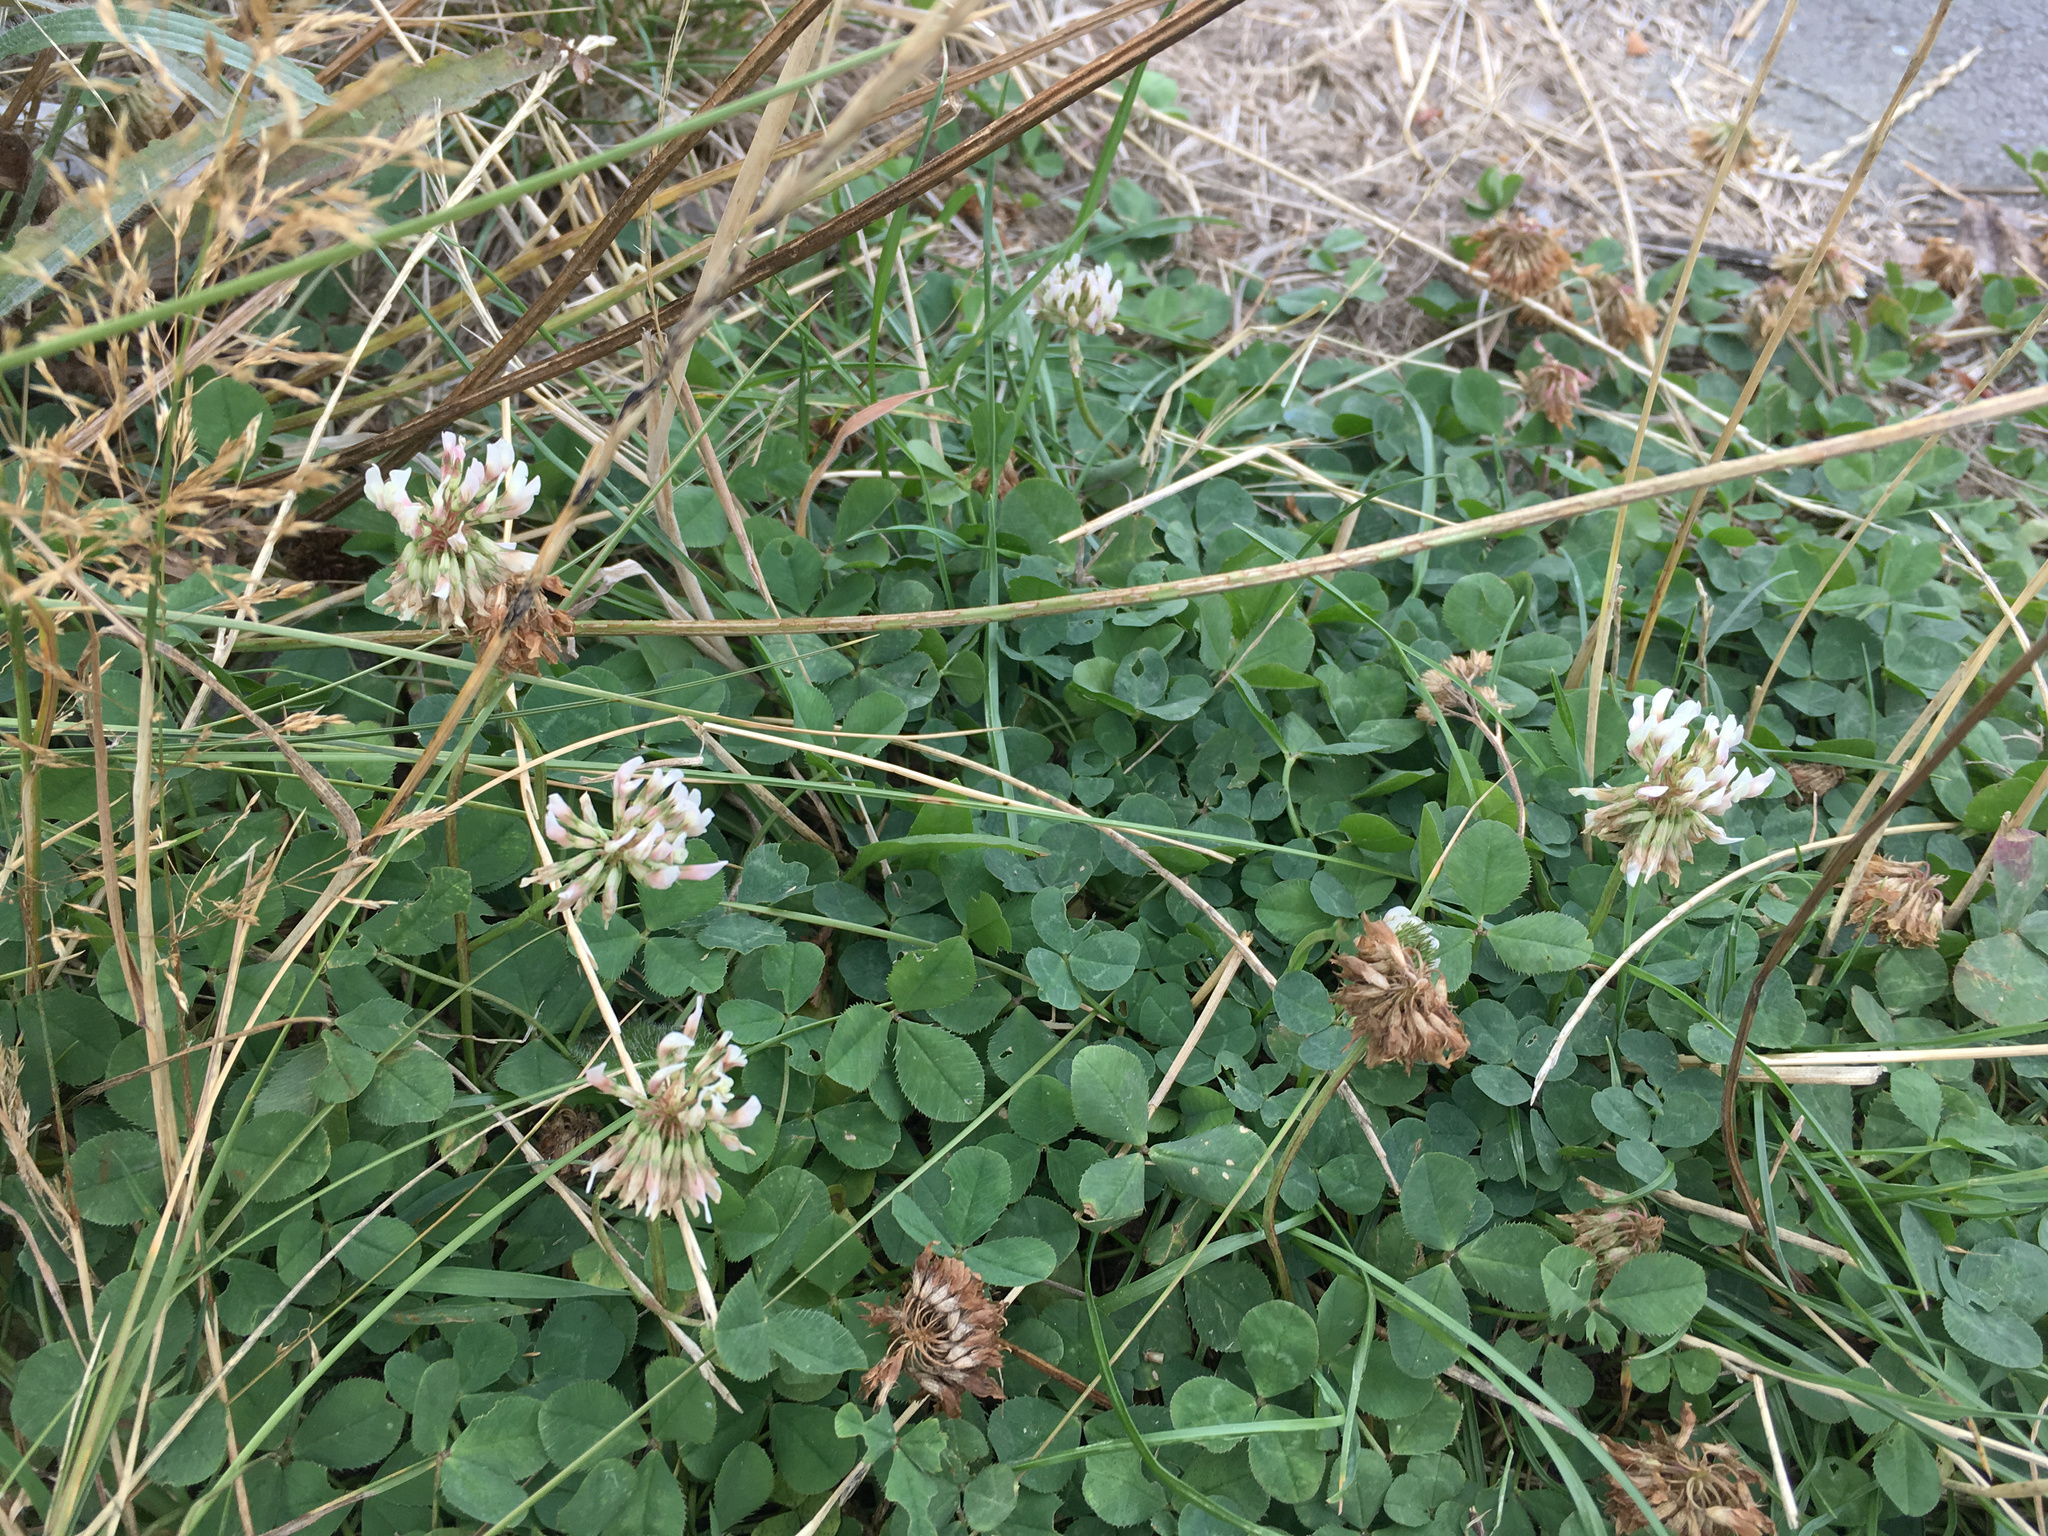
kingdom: Plantae
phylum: Tracheophyta
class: Magnoliopsida
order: Fabales
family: Fabaceae
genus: Trifolium
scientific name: Trifolium repens
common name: White clover
